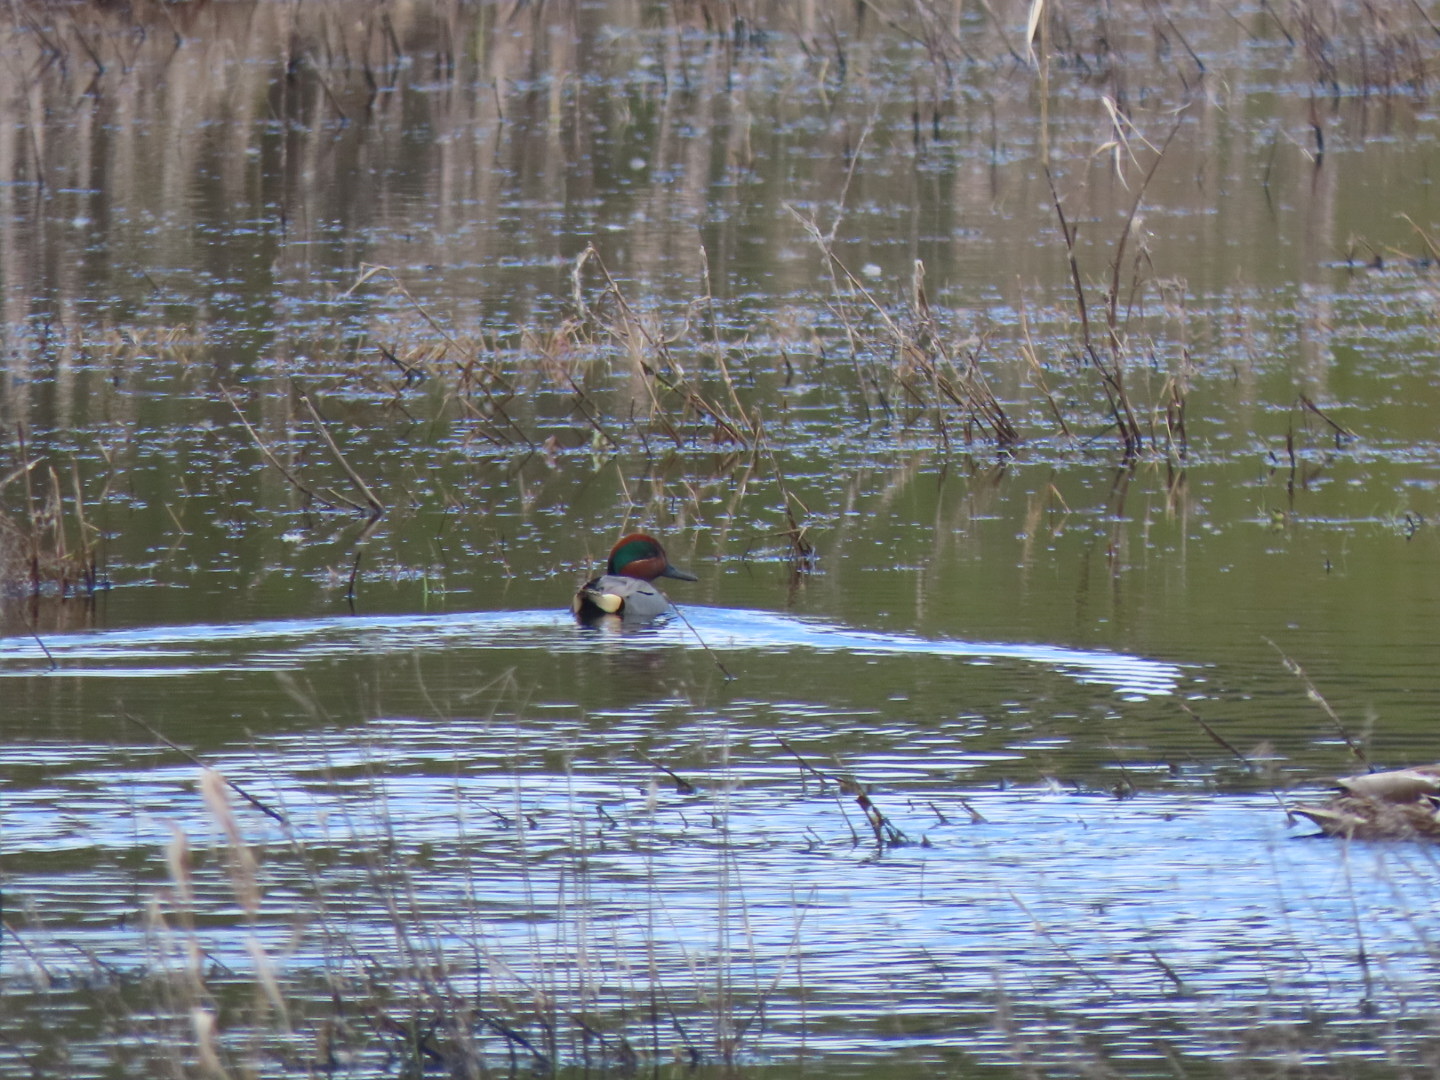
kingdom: Animalia
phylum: Chordata
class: Aves
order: Anseriformes
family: Anatidae
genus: Anas
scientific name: Anas crecca
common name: Eurasian teal
